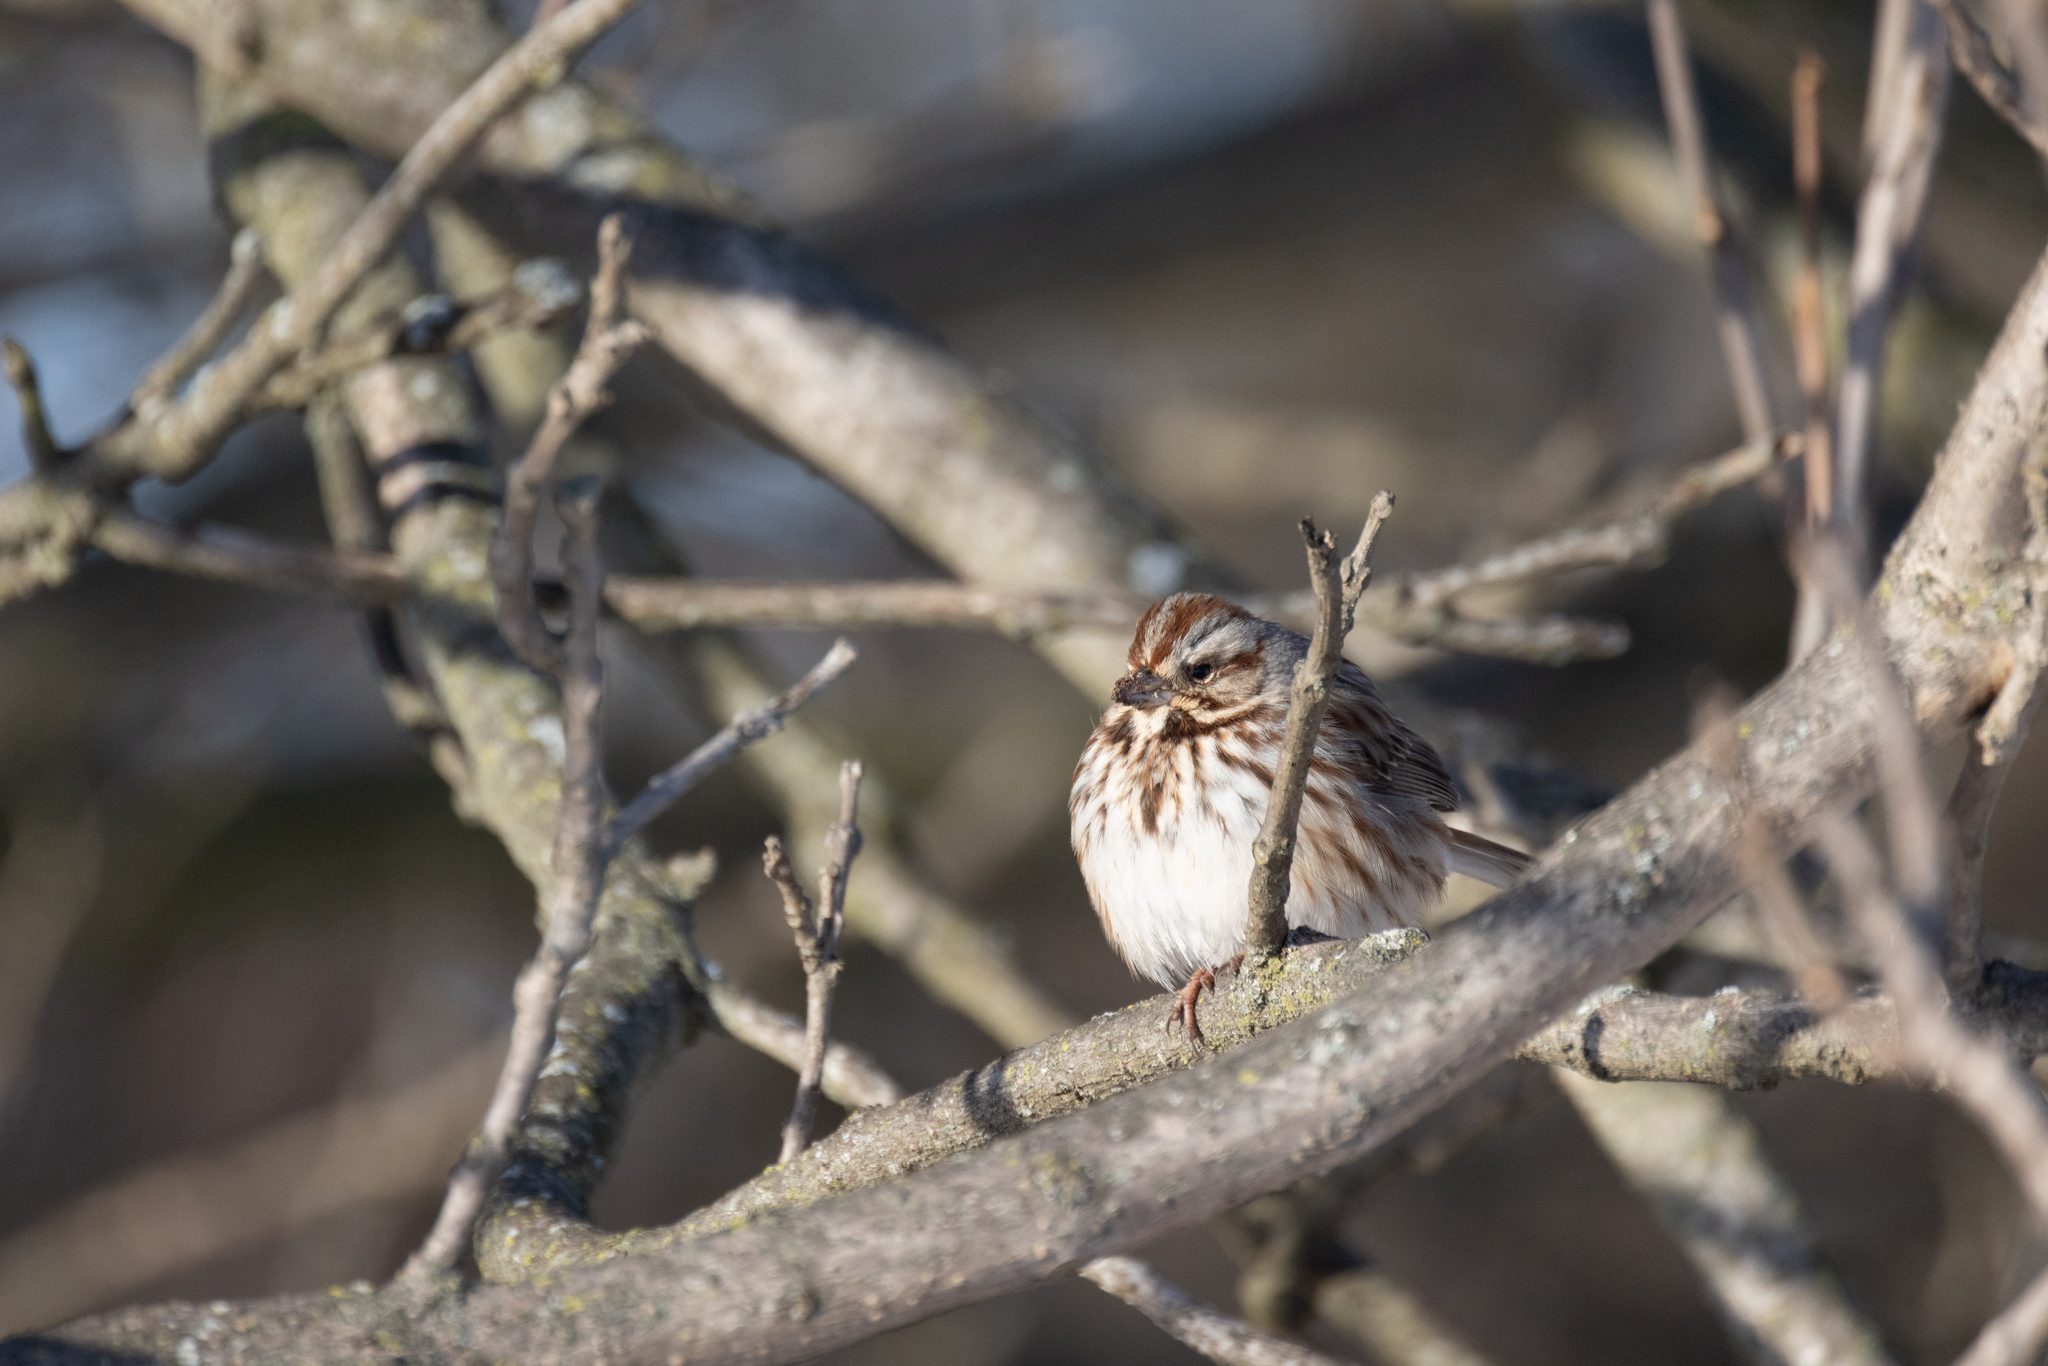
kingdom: Animalia
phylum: Chordata
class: Aves
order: Passeriformes
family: Passerellidae
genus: Melospiza
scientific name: Melospiza melodia
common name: Song sparrow
